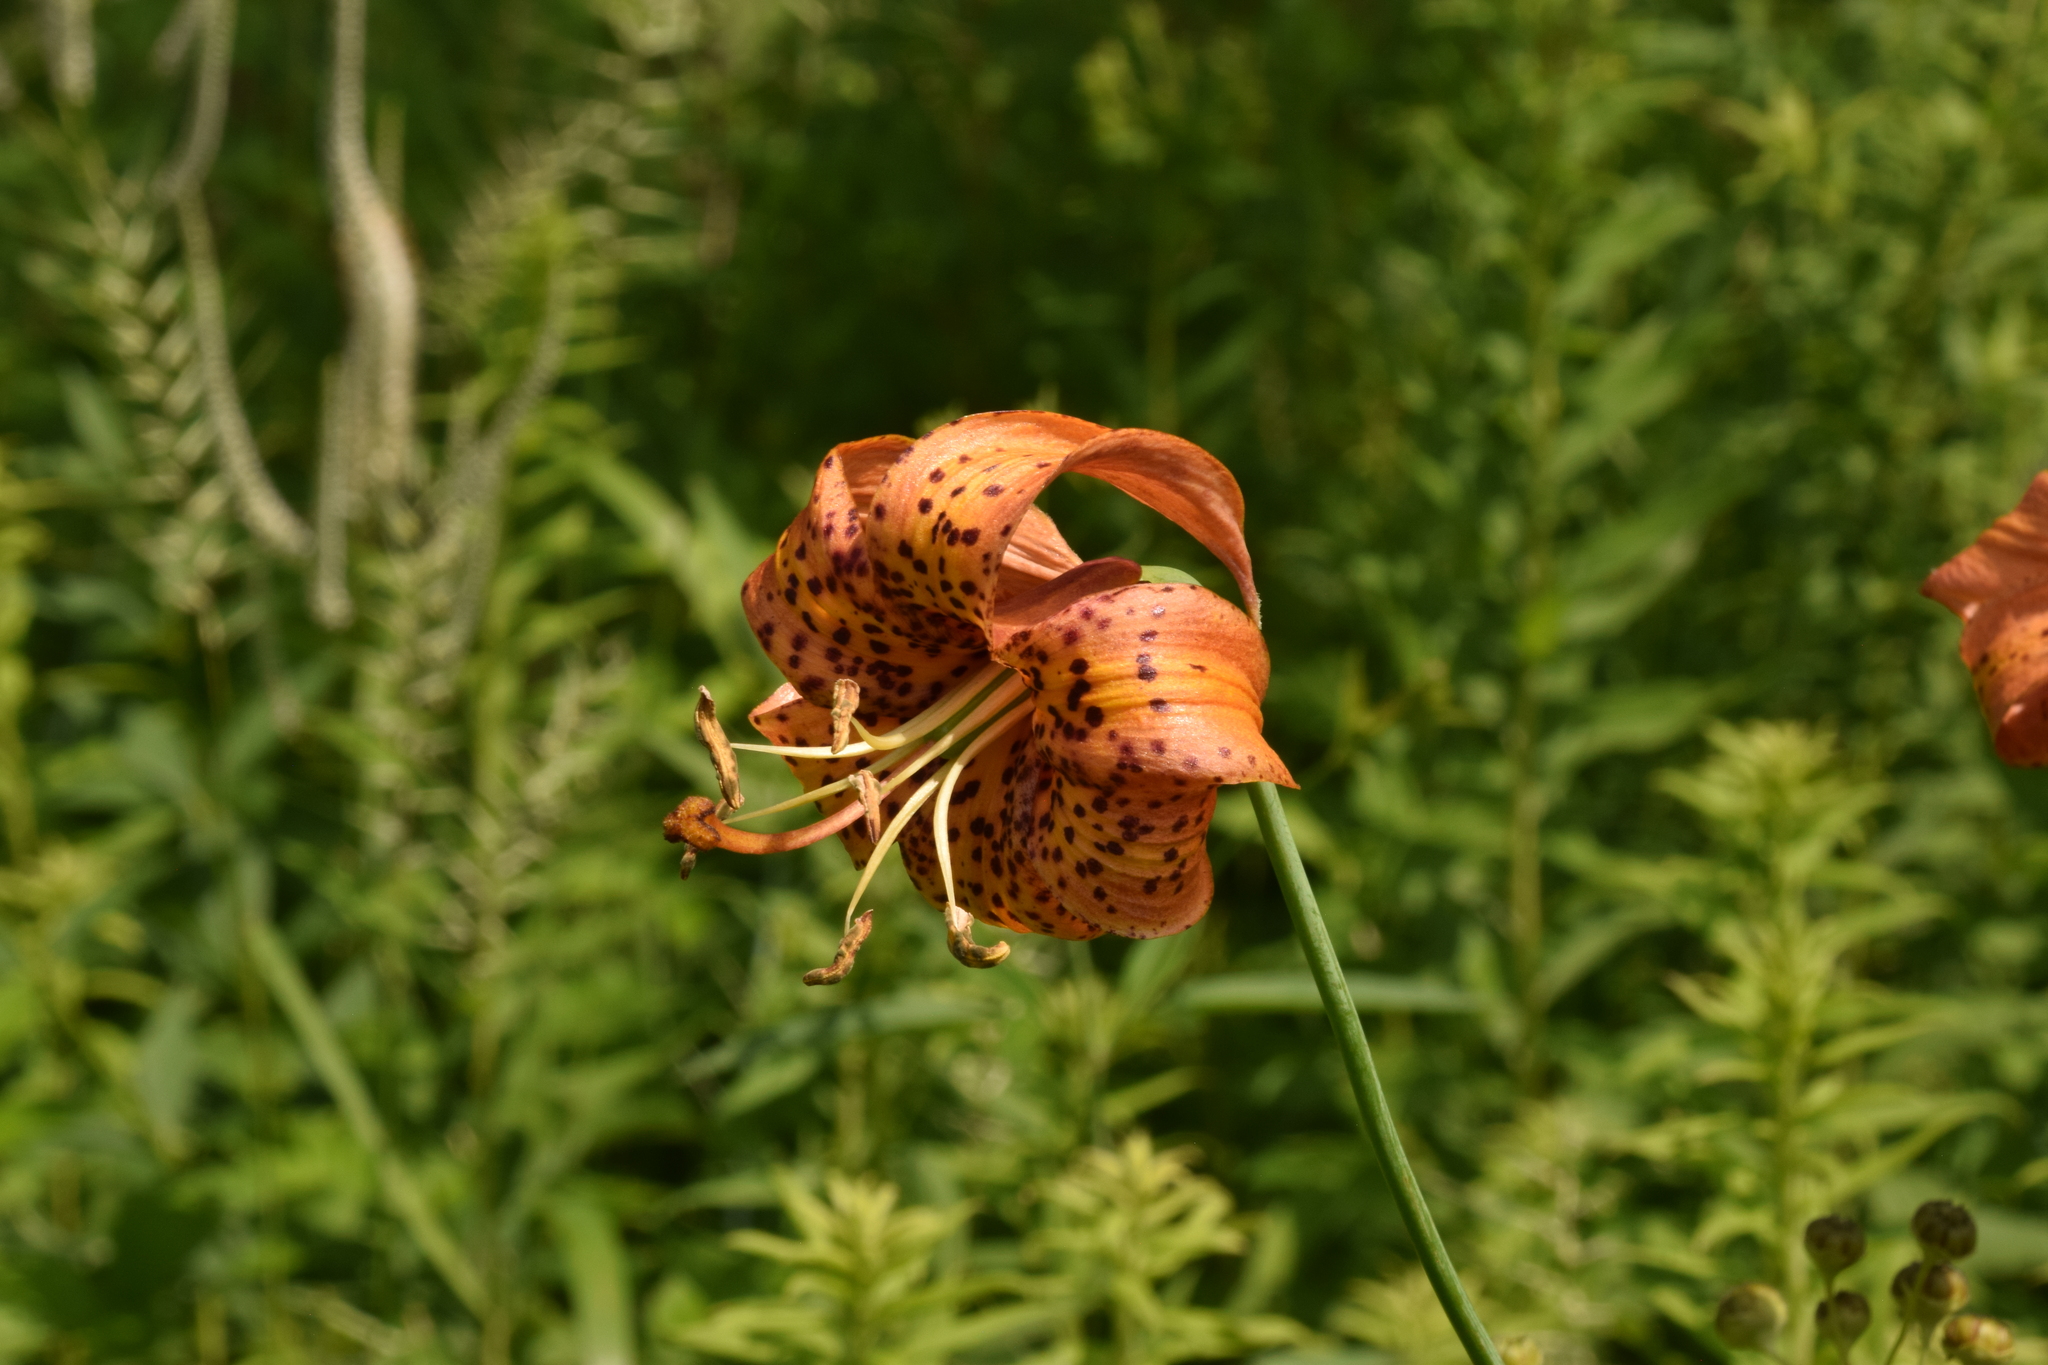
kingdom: Plantae
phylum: Tracheophyta
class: Liliopsida
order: Liliales
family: Liliaceae
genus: Lilium
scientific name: Lilium michiganense
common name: Michigan lily
